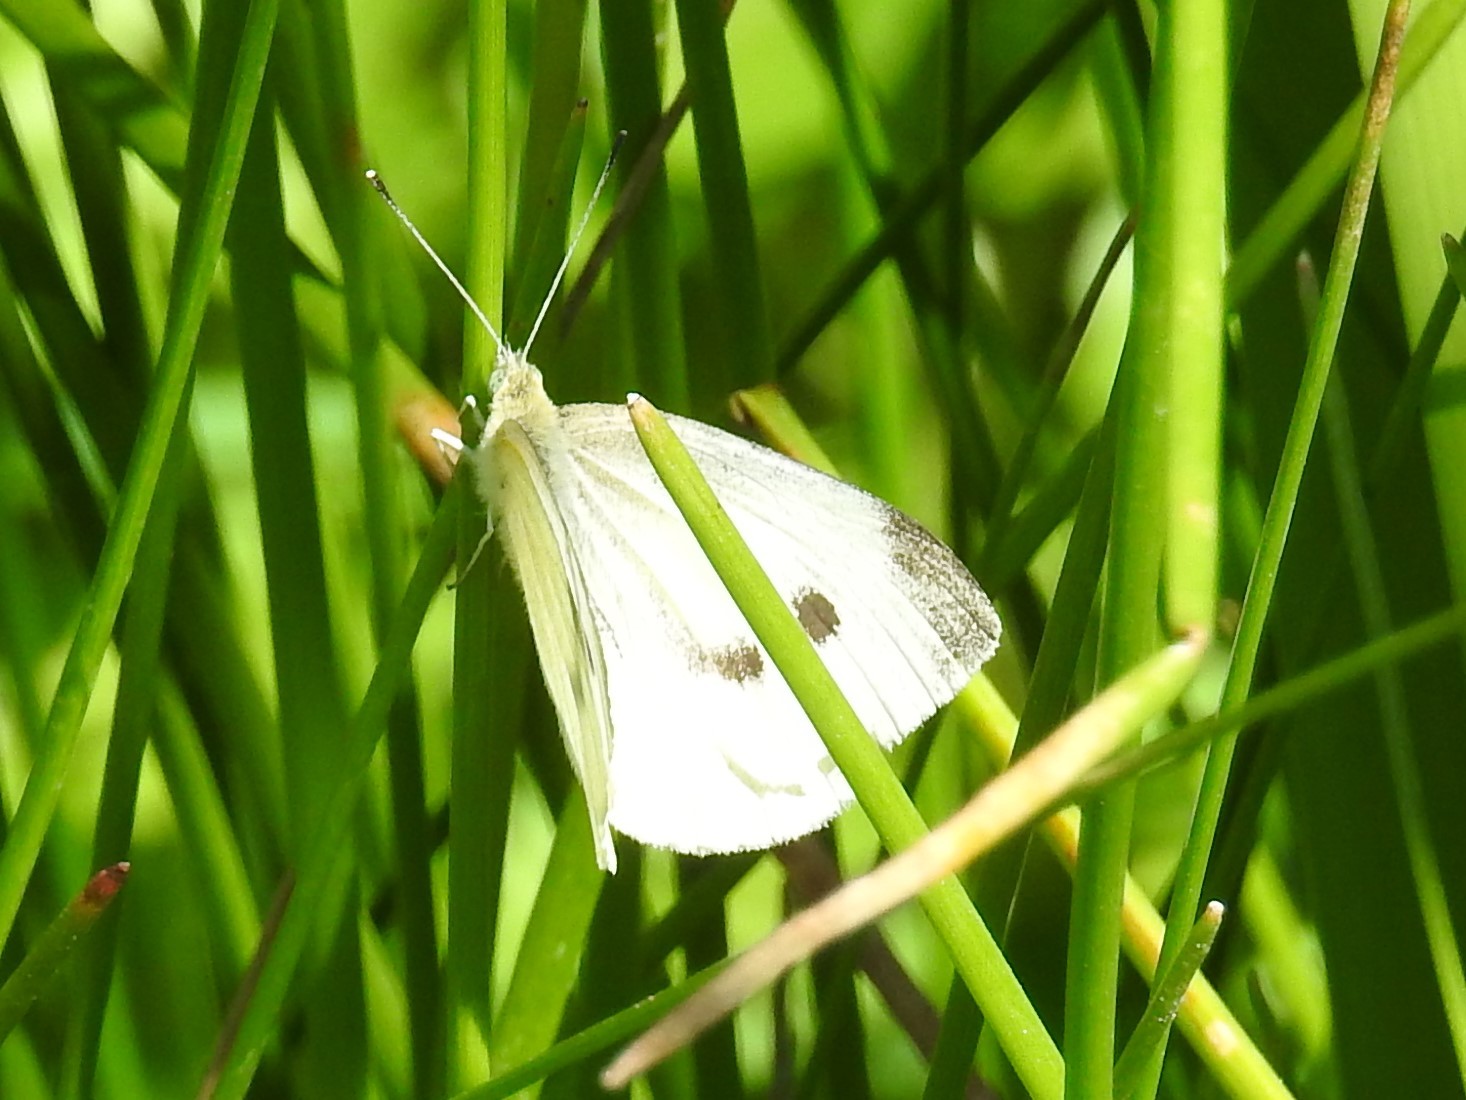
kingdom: Animalia
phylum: Arthropoda
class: Insecta
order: Lepidoptera
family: Pieridae
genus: Pieris
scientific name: Pieris rapae
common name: Small white
